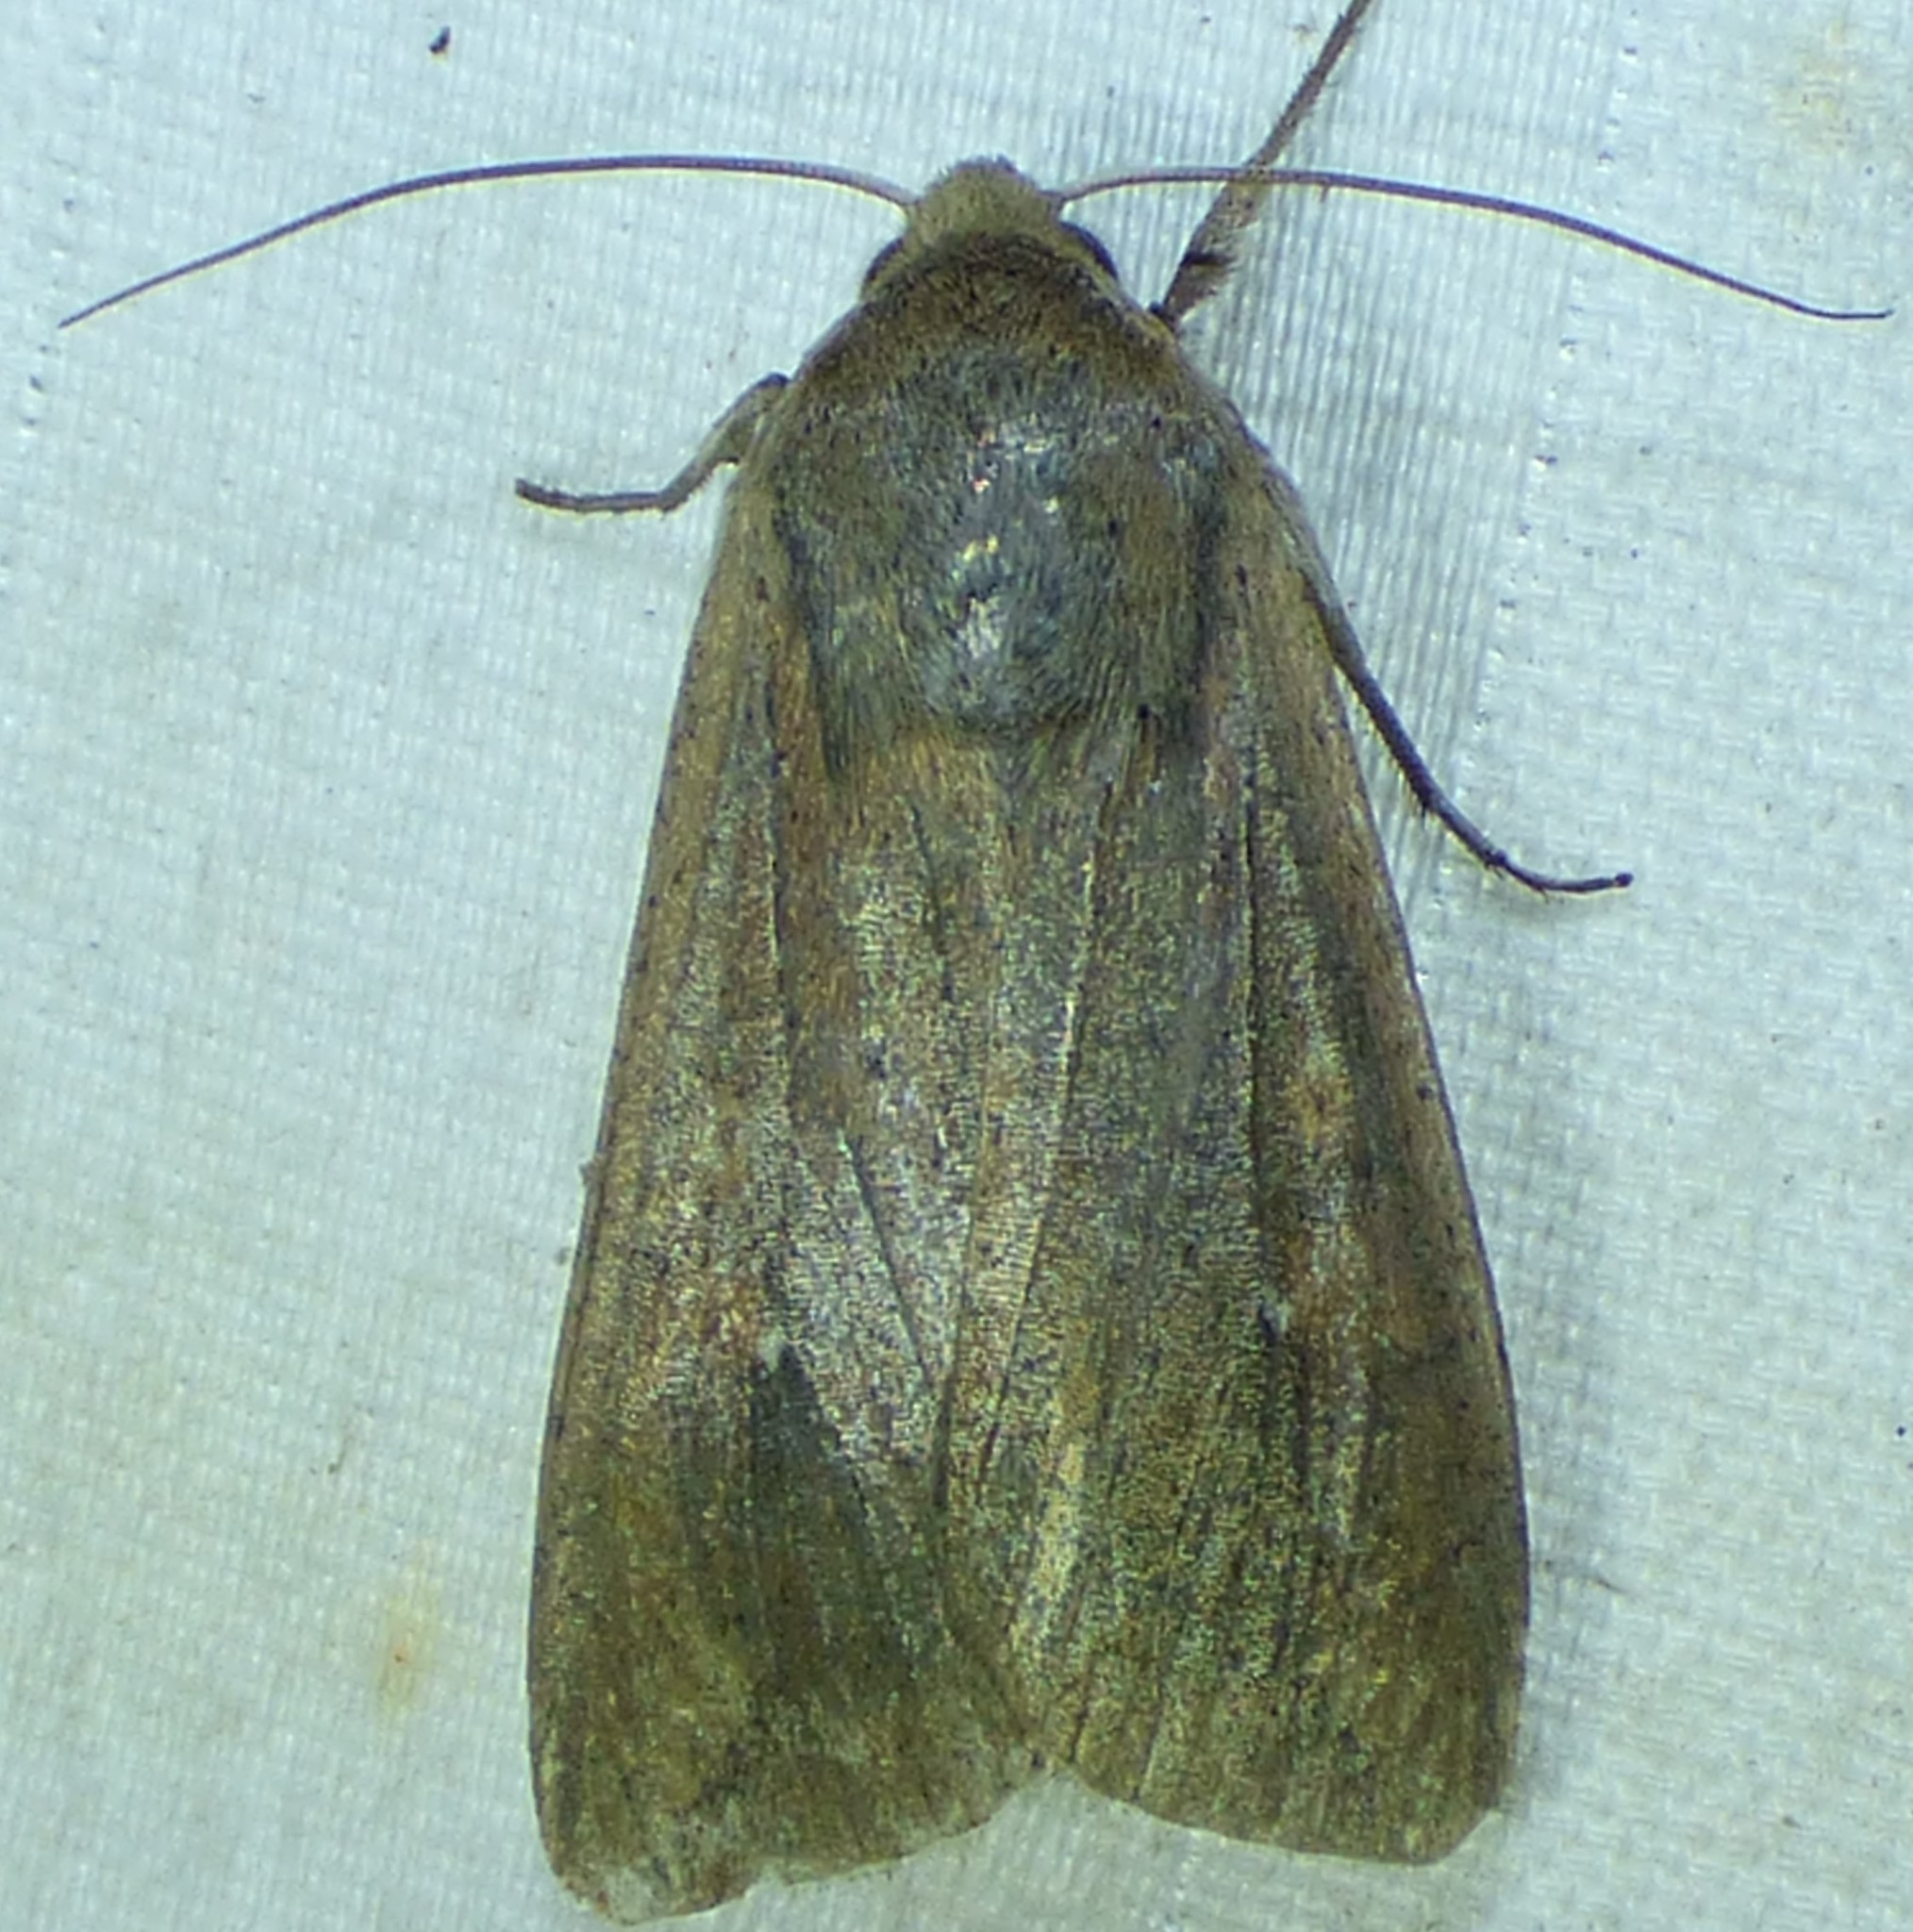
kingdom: Animalia
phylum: Arthropoda
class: Insecta
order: Lepidoptera
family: Noctuidae
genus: Mythimna
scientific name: Mythimna unipuncta
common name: White-speck
